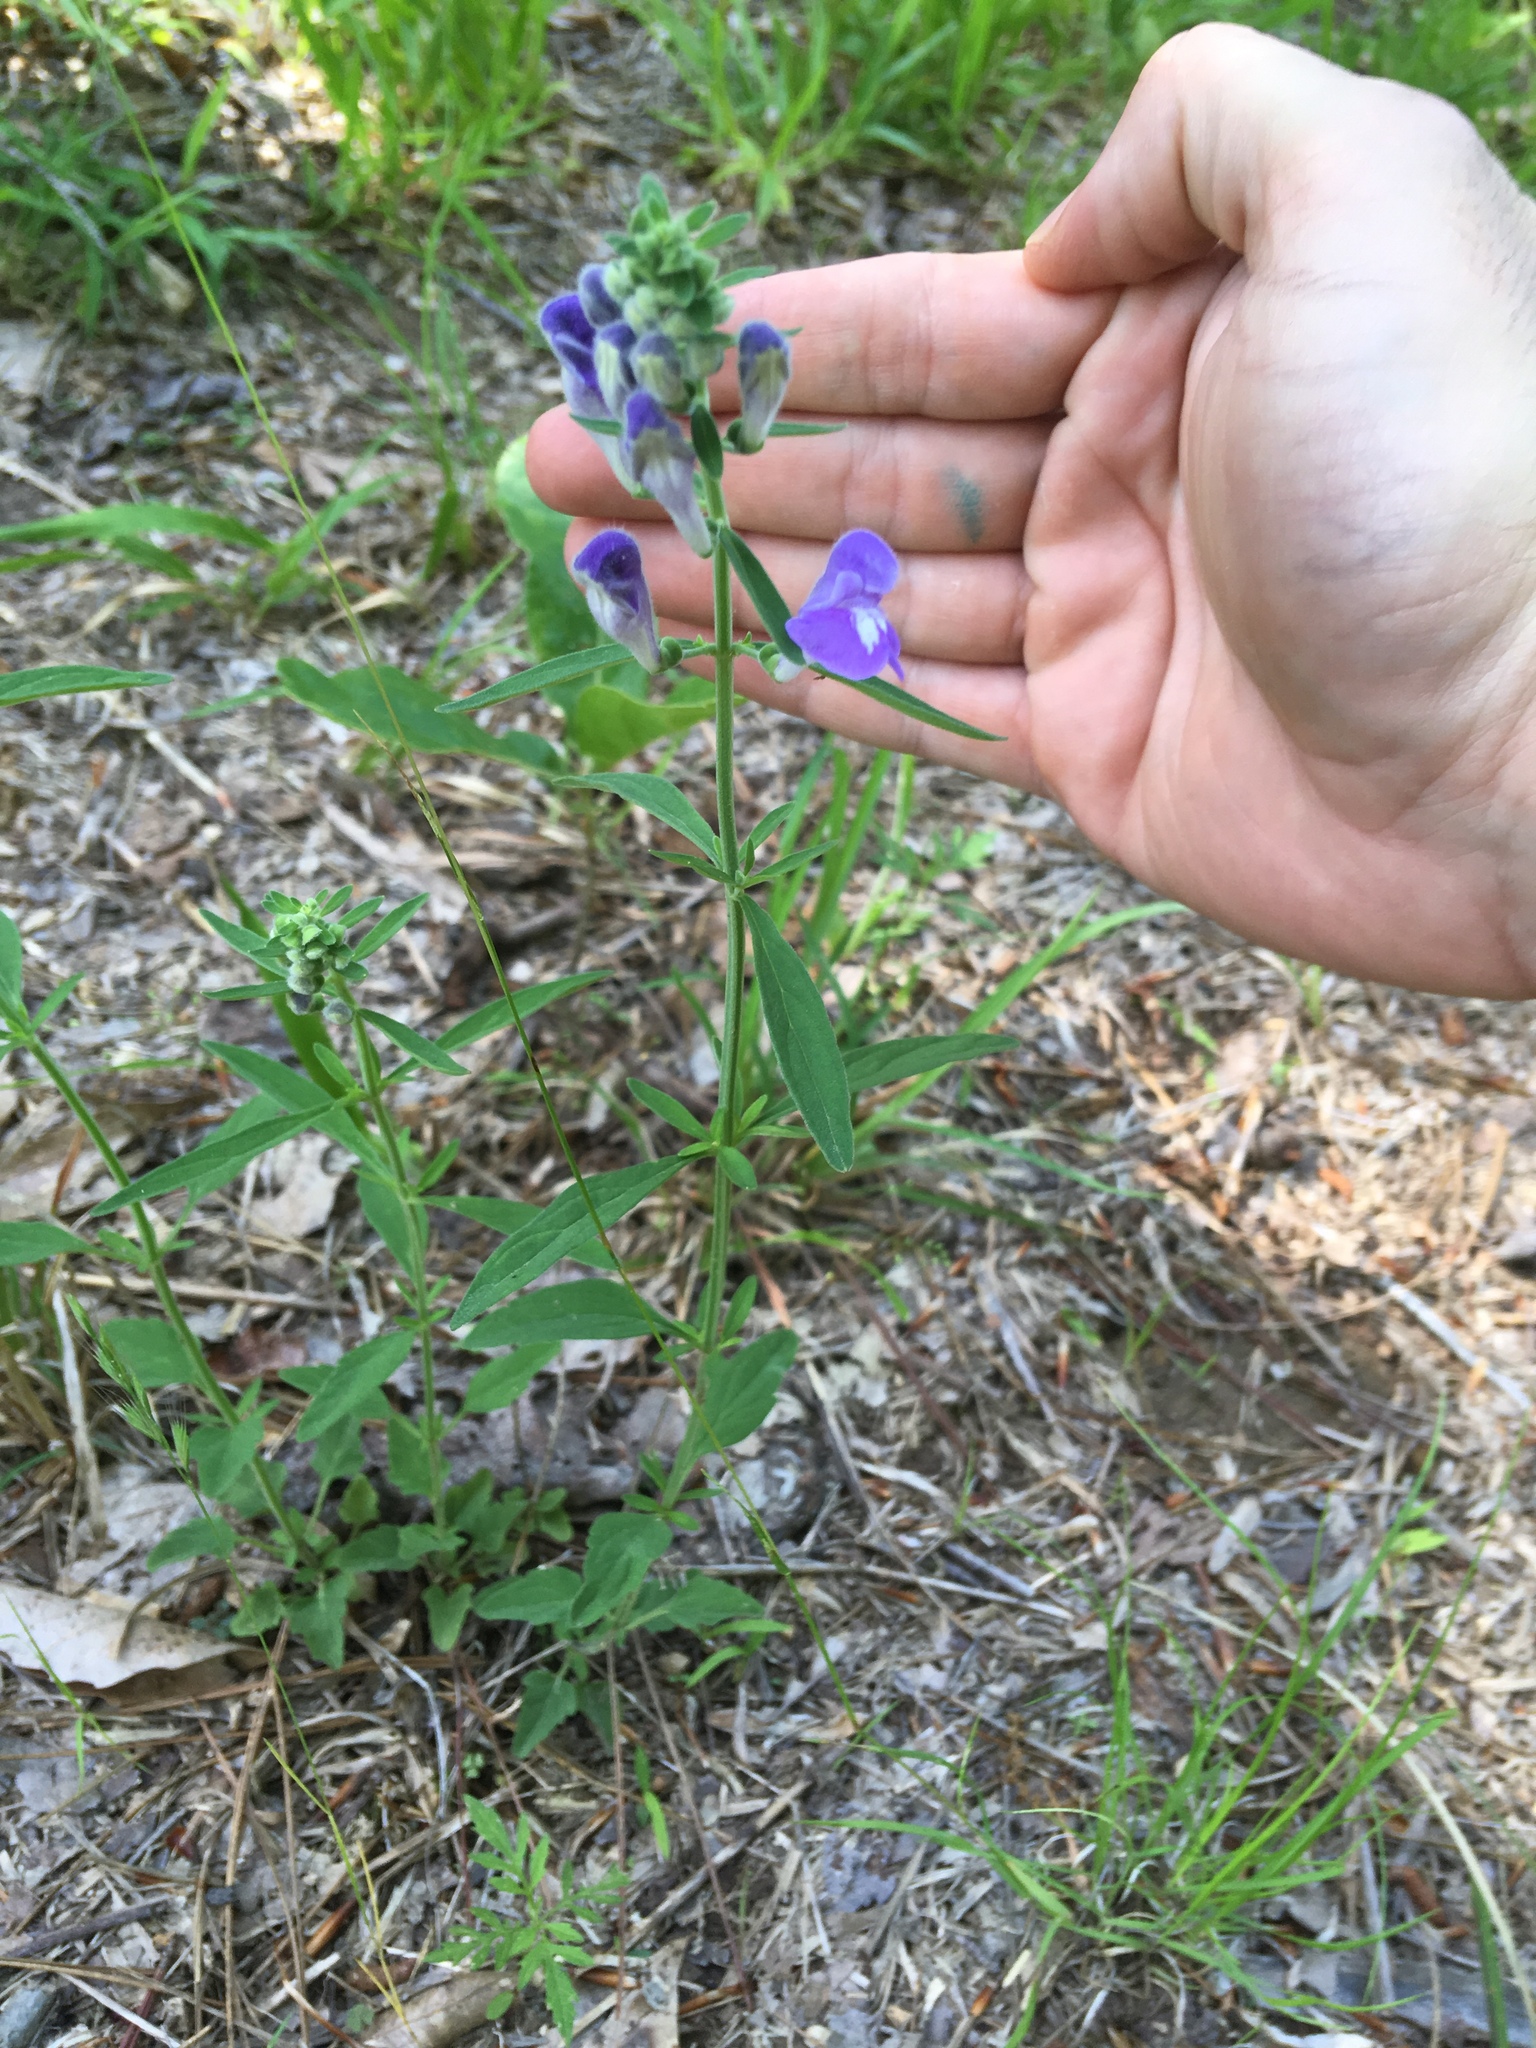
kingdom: Plantae
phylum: Tracheophyta
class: Magnoliopsida
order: Lamiales
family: Lamiaceae
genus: Scutellaria
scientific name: Scutellaria integrifolia
